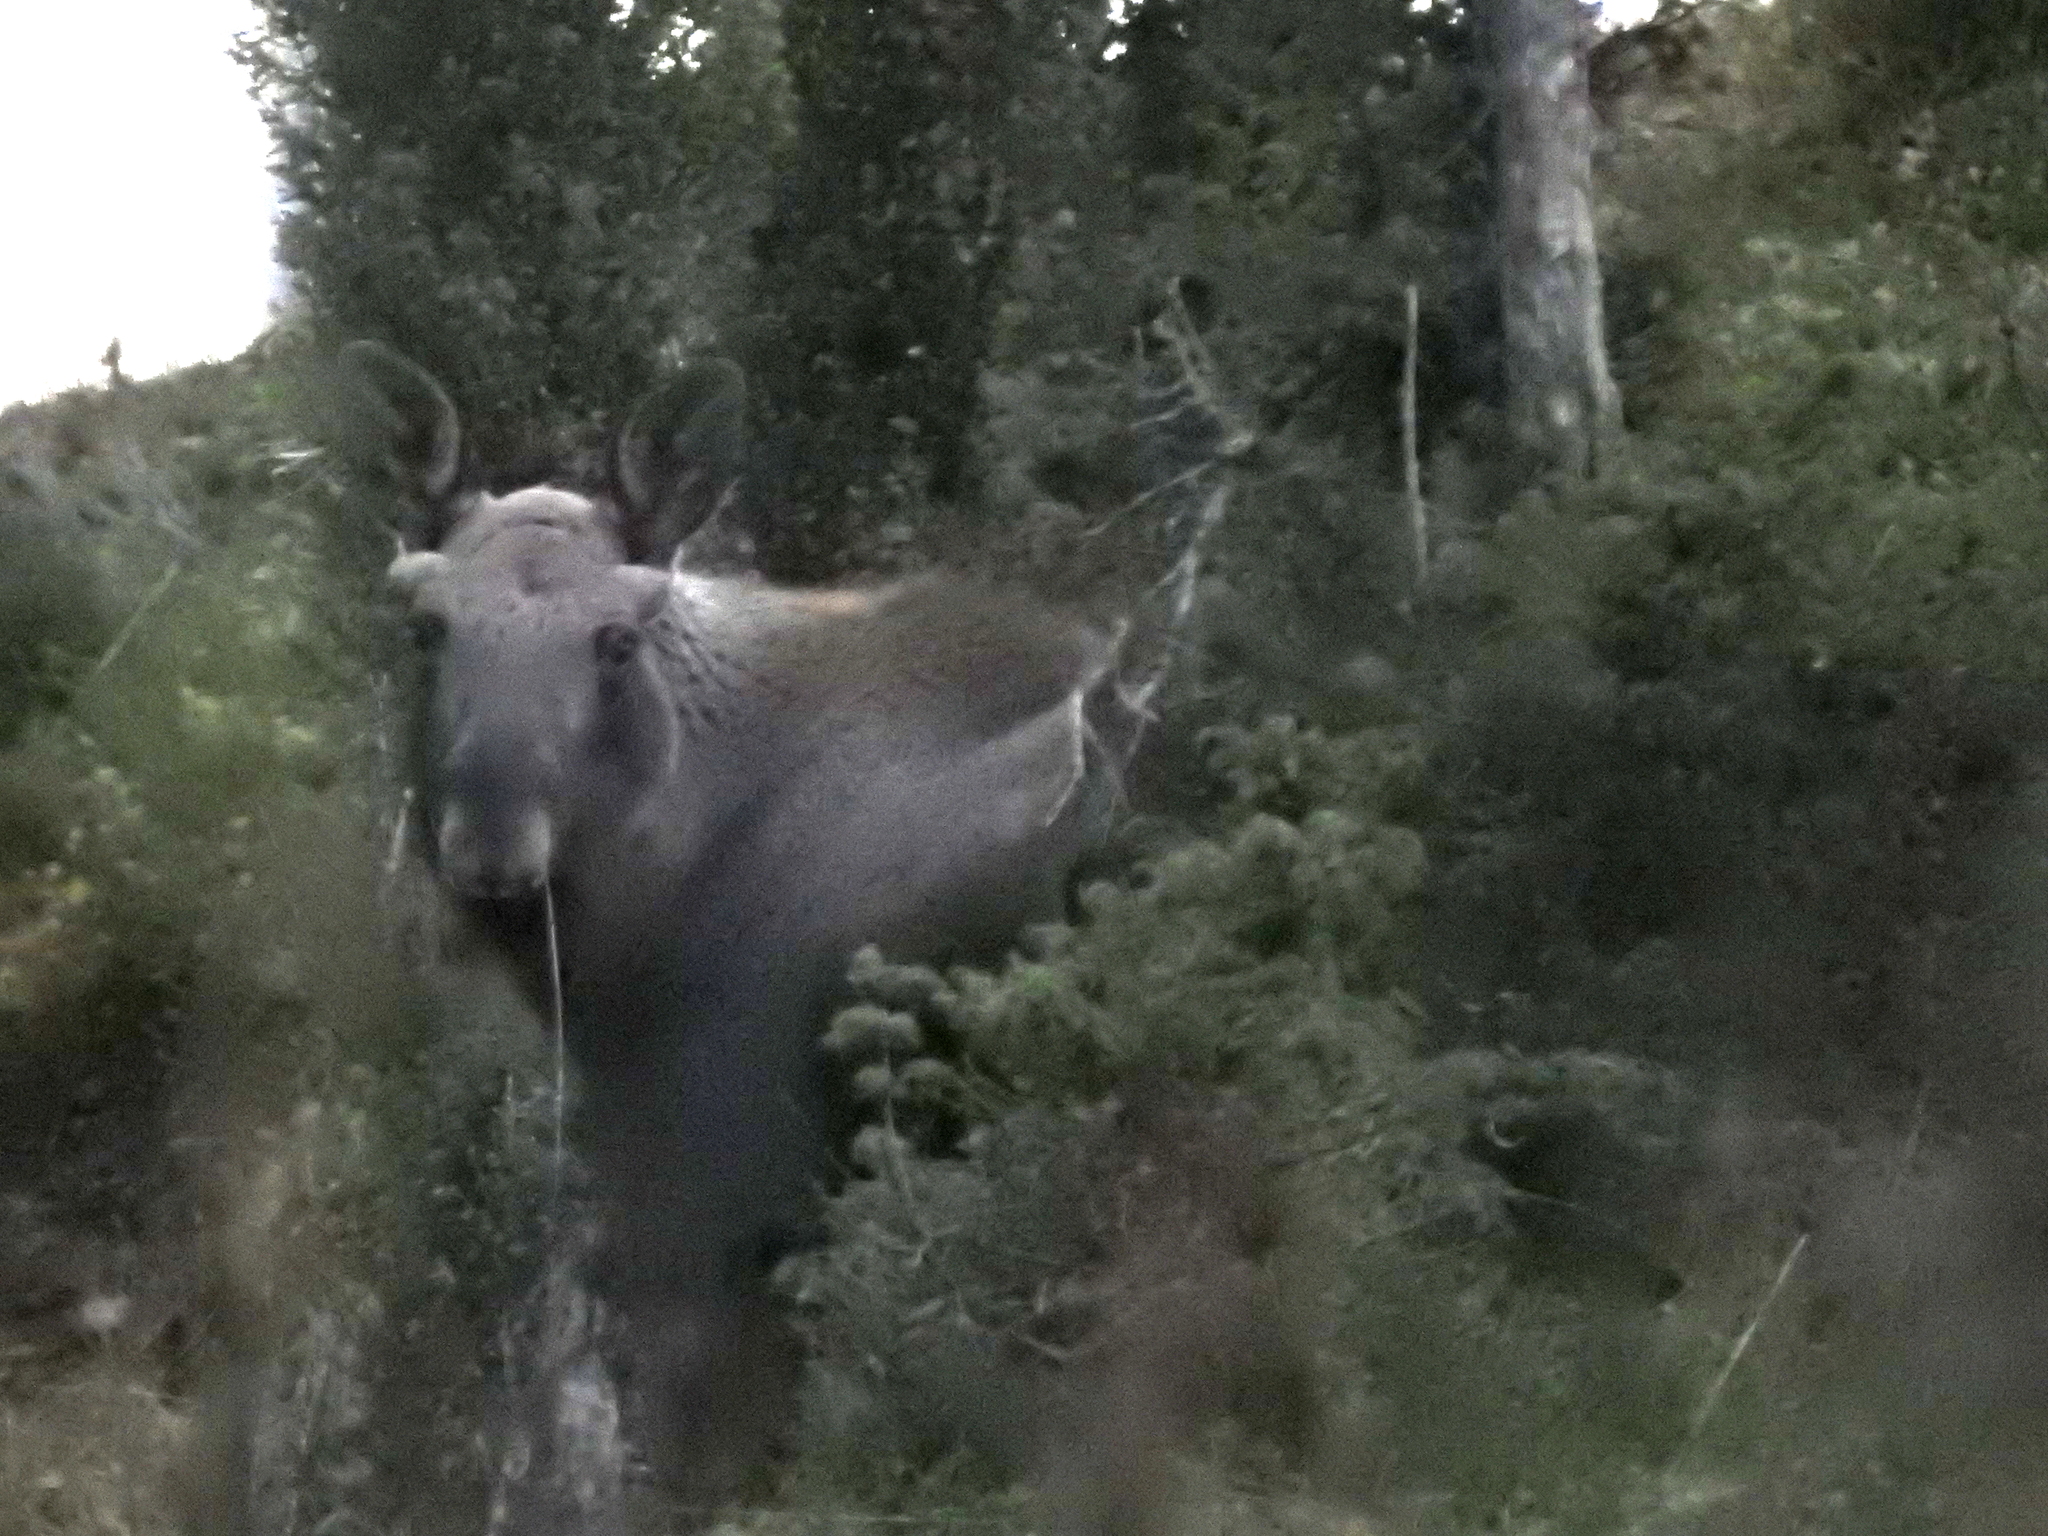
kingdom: Animalia
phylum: Chordata
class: Mammalia
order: Artiodactyla
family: Cervidae
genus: Alces
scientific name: Alces alces
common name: Moose
